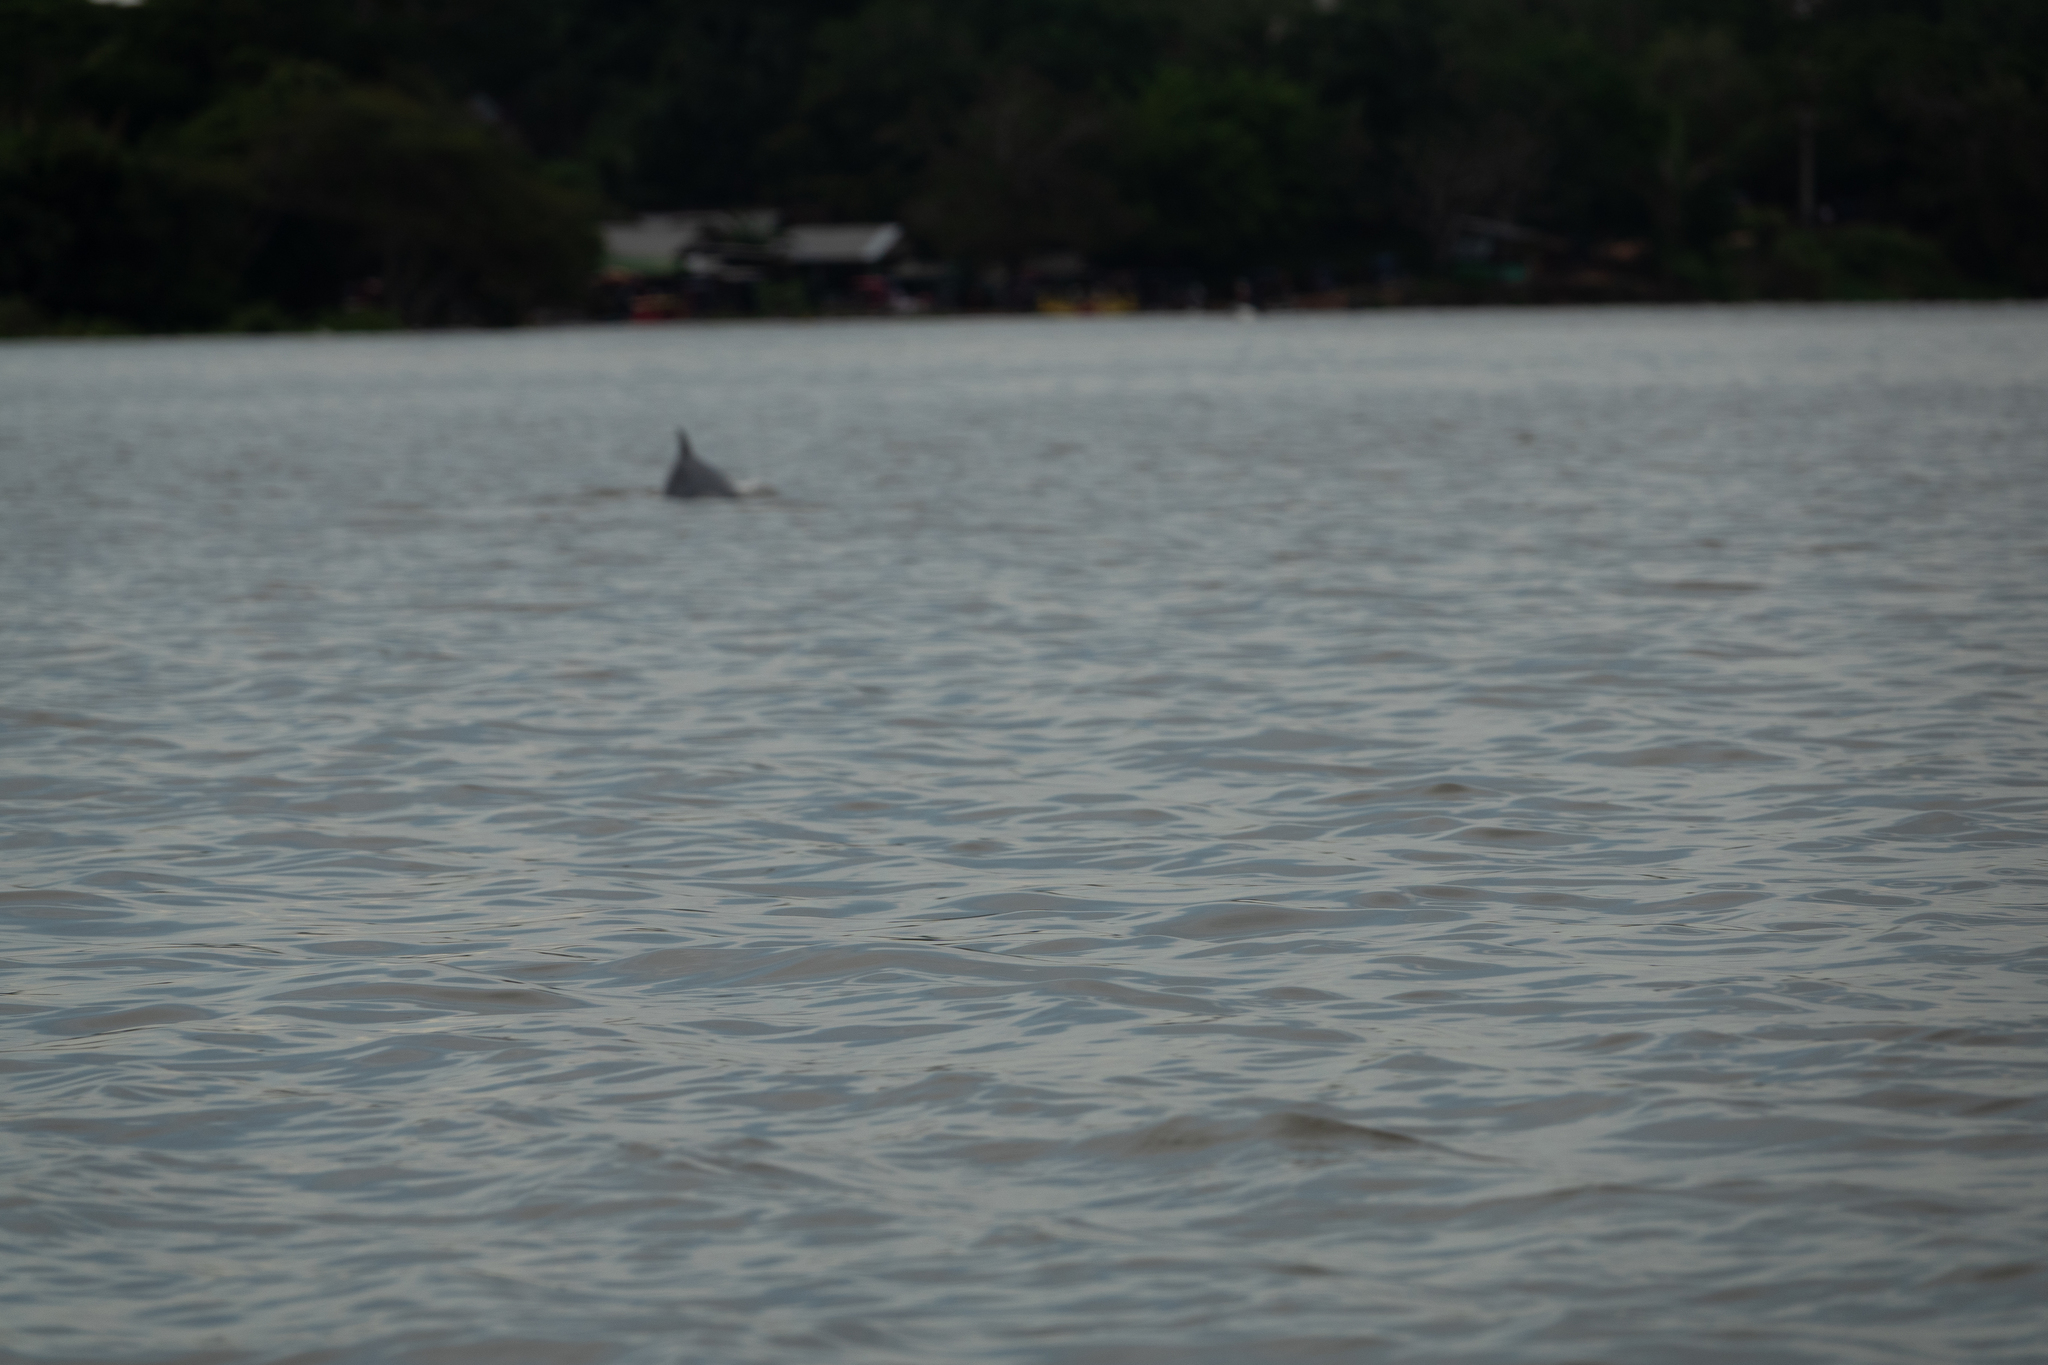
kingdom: Animalia
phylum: Chordata
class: Mammalia
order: Cetacea
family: Delphinidae
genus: Sotalia
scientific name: Sotalia fluviatilis
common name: Tucuxi
